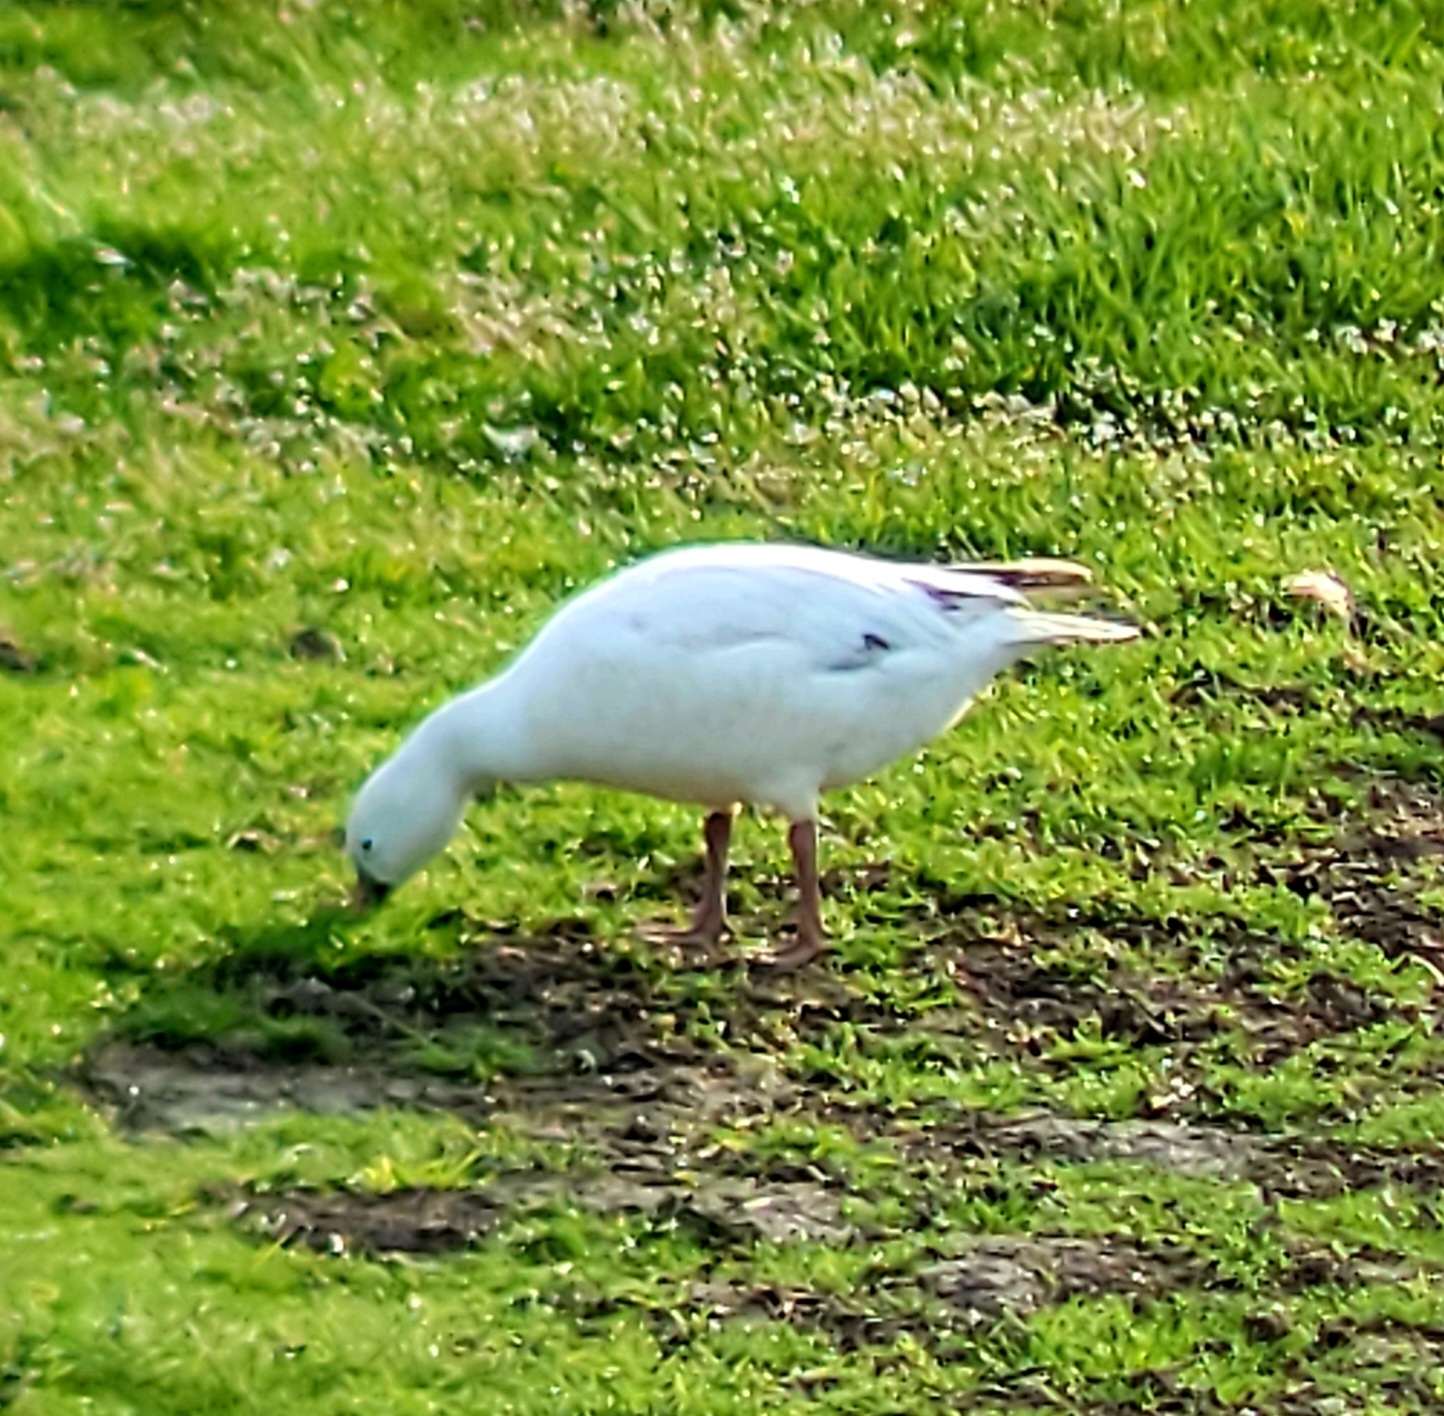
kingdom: Animalia
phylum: Chordata
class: Aves
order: Anseriformes
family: Anatidae
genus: Anser
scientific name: Anser rossii
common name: Ross's goose
